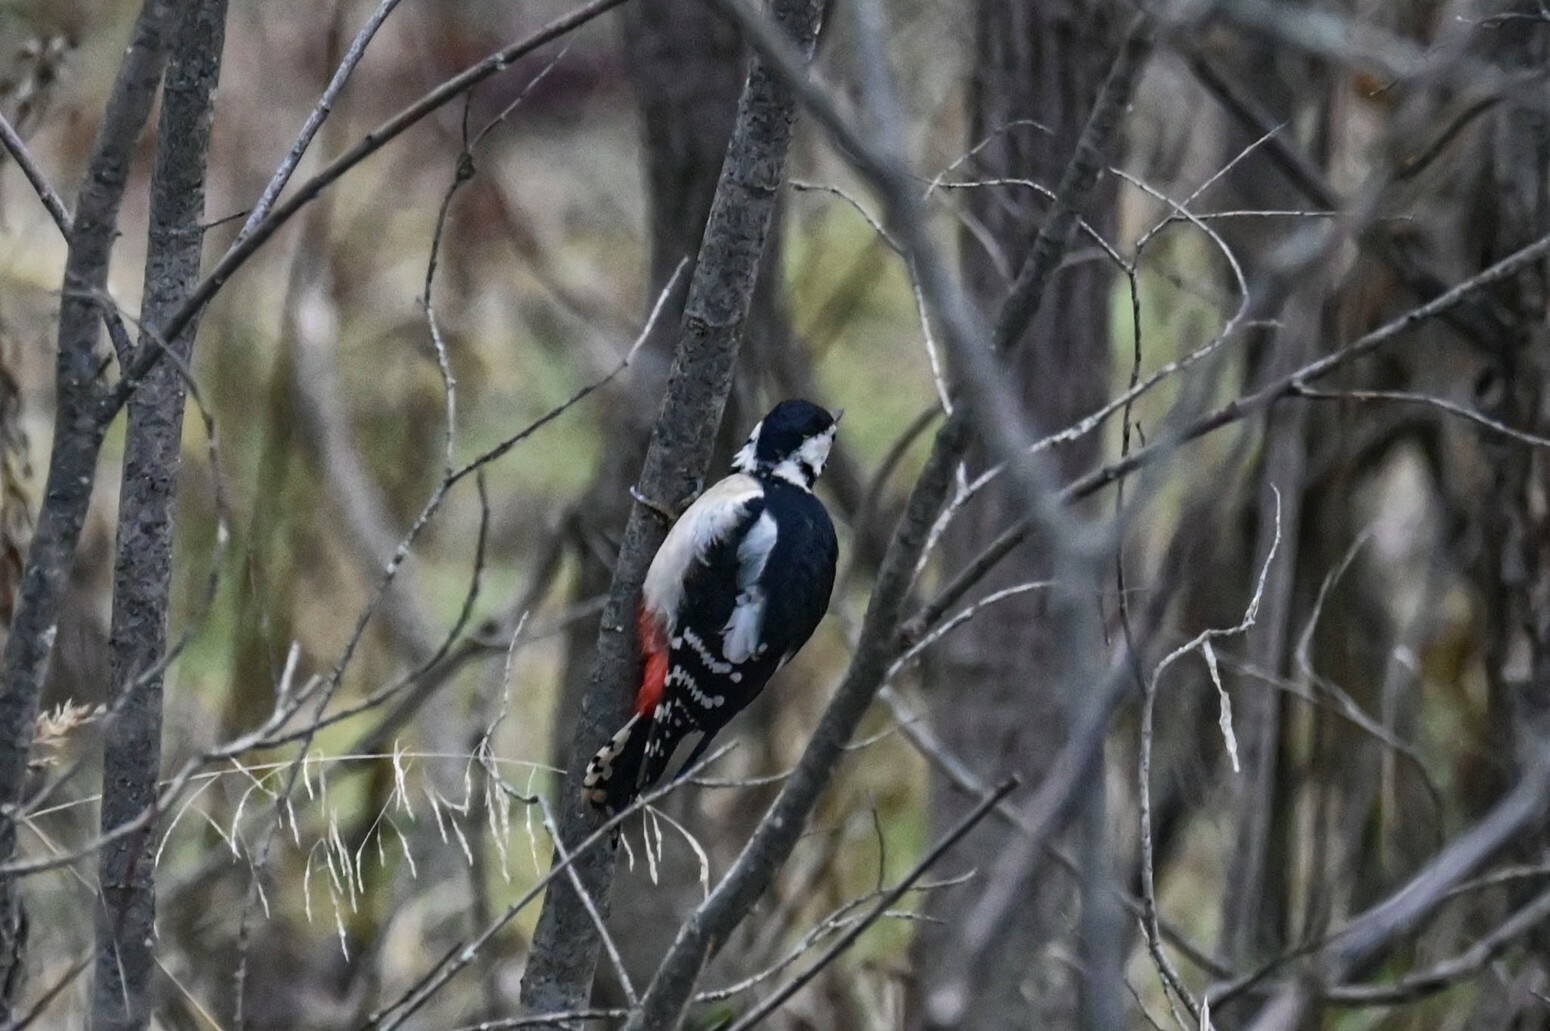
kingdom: Animalia
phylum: Chordata
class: Aves
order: Piciformes
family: Picidae
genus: Dendrocopos
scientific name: Dendrocopos major
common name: Great spotted woodpecker
